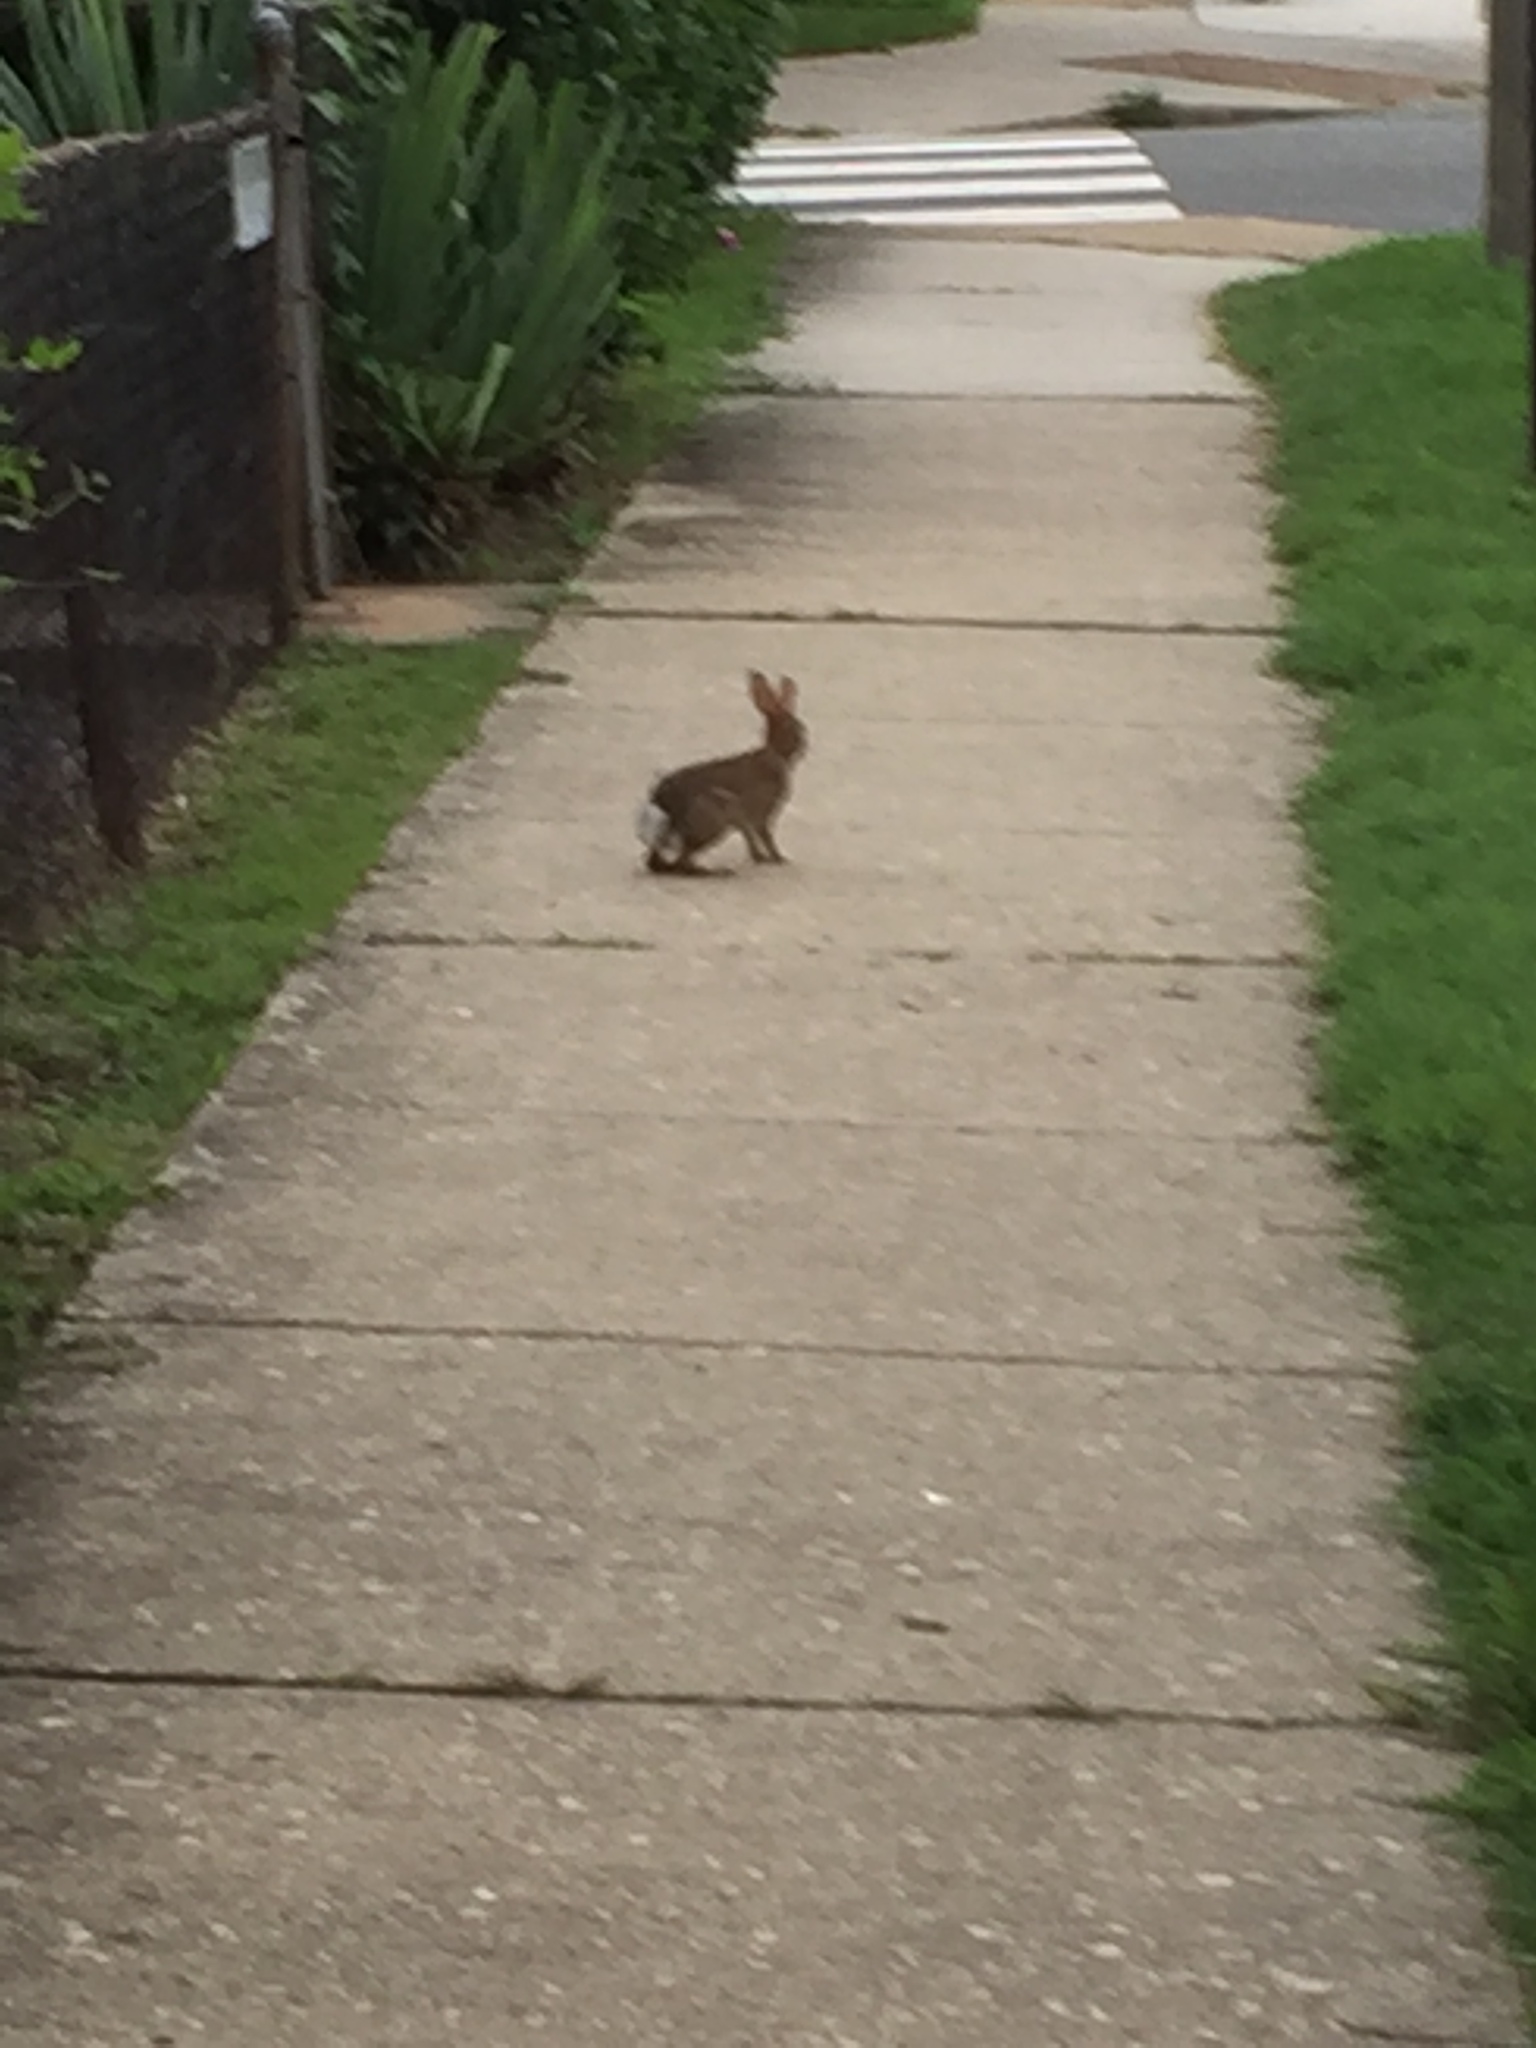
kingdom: Animalia
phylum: Chordata
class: Mammalia
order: Lagomorpha
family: Leporidae
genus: Sylvilagus
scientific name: Sylvilagus floridanus
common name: Eastern cottontail
